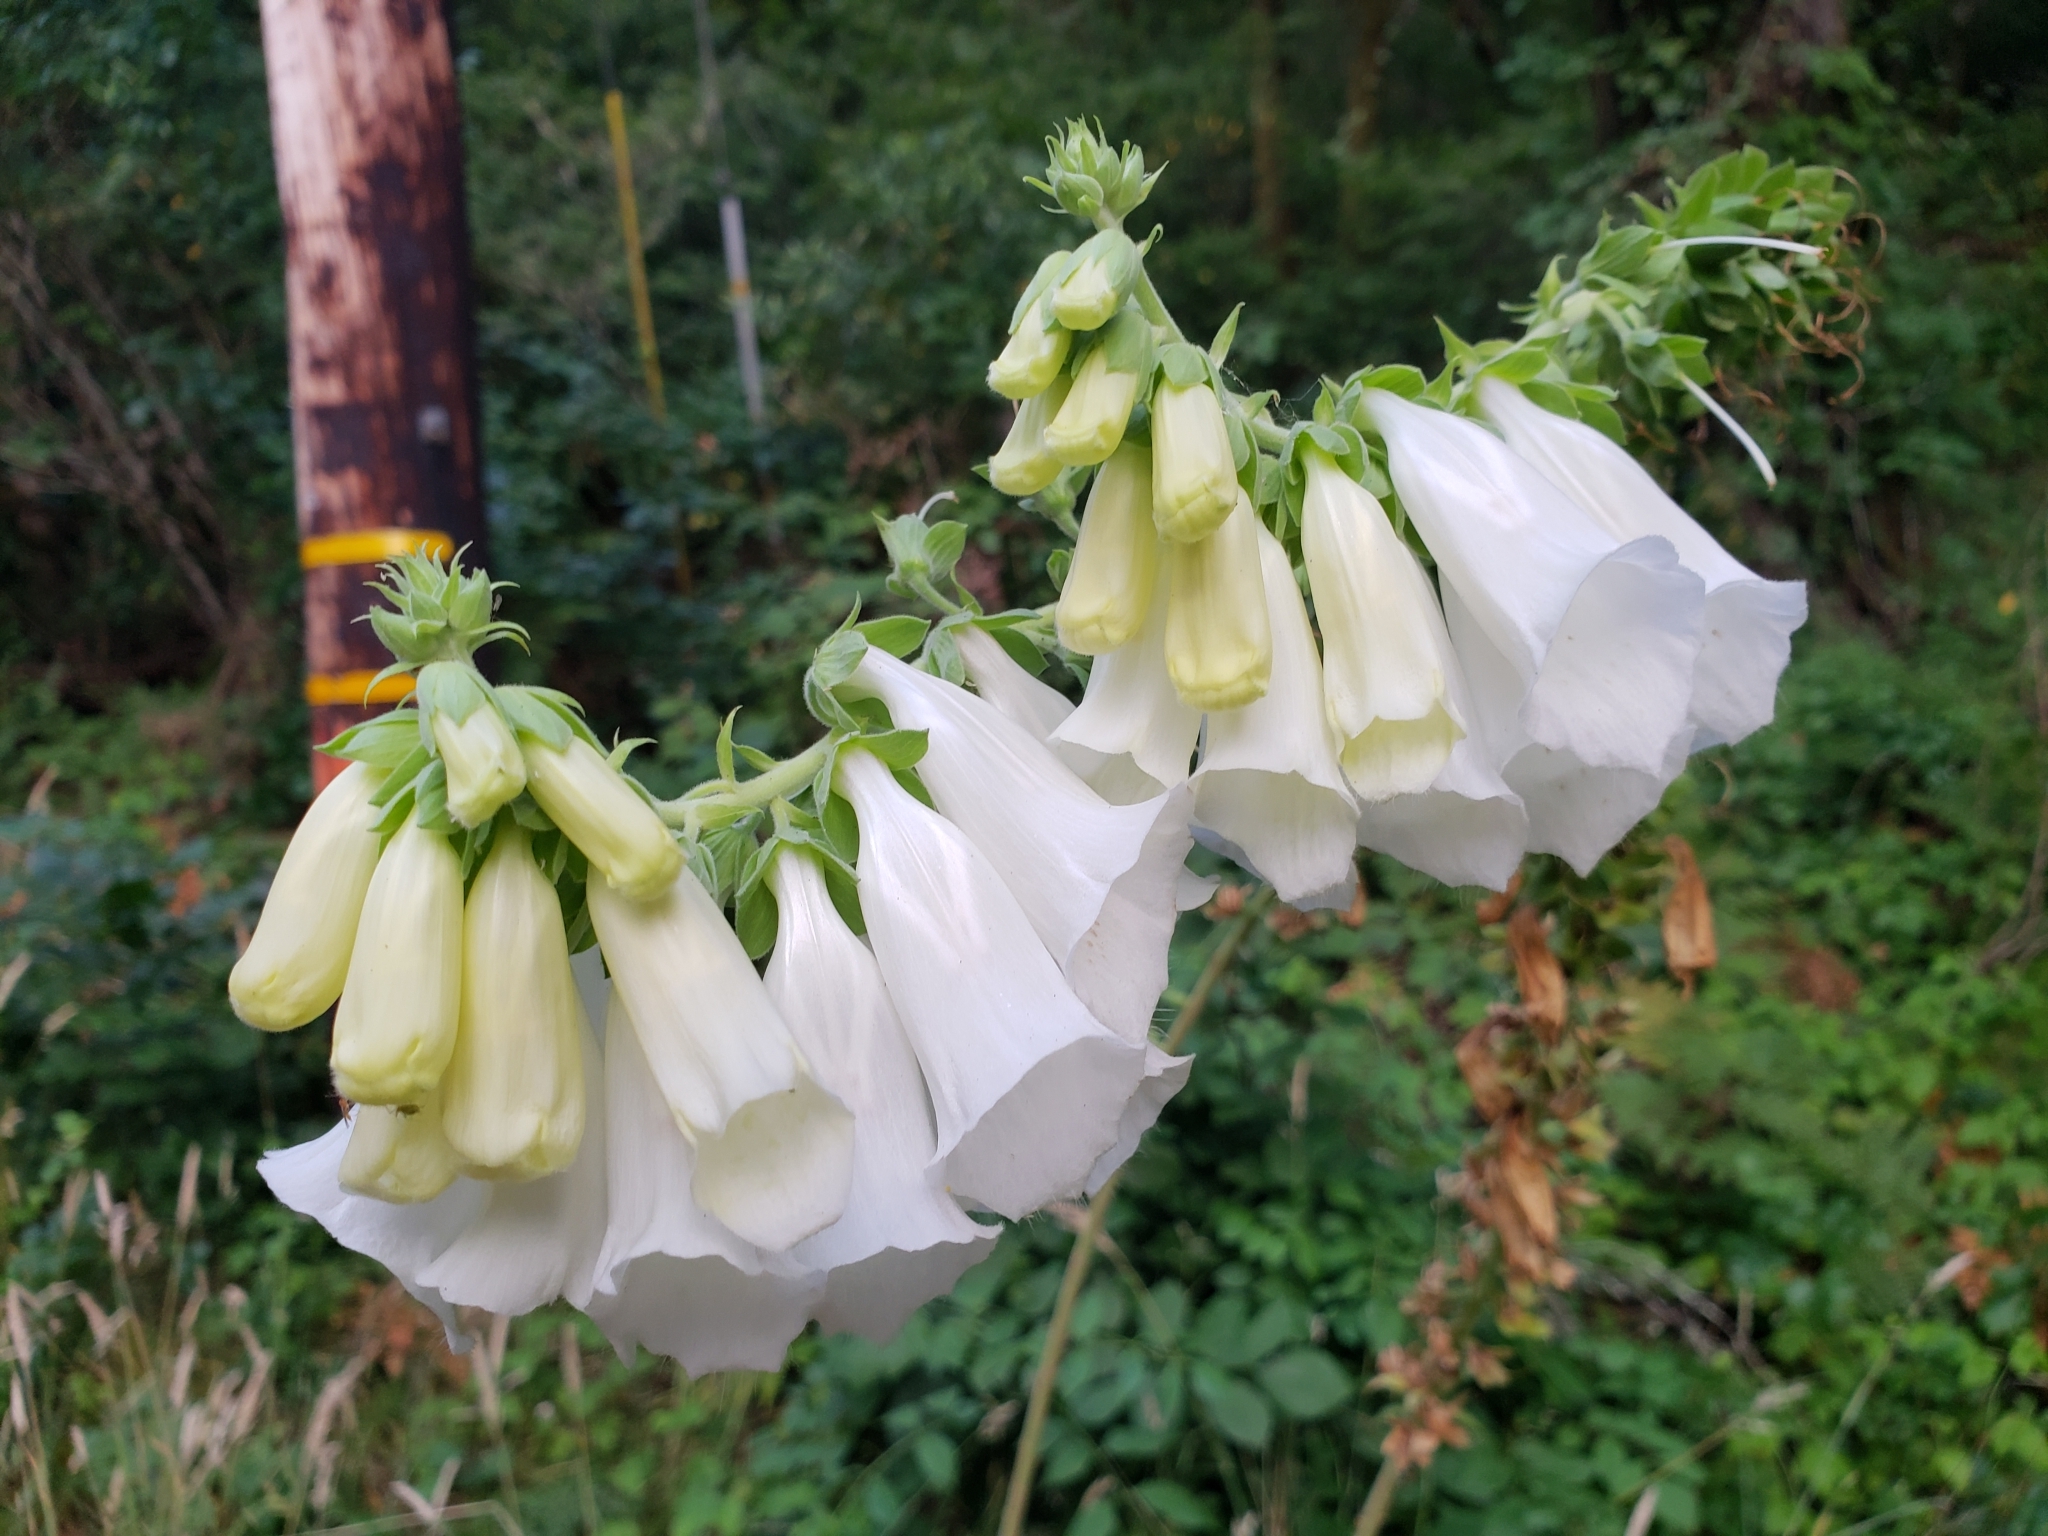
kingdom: Plantae
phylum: Tracheophyta
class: Magnoliopsida
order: Lamiales
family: Plantaginaceae
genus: Digitalis
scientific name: Digitalis purpurea
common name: Foxglove
